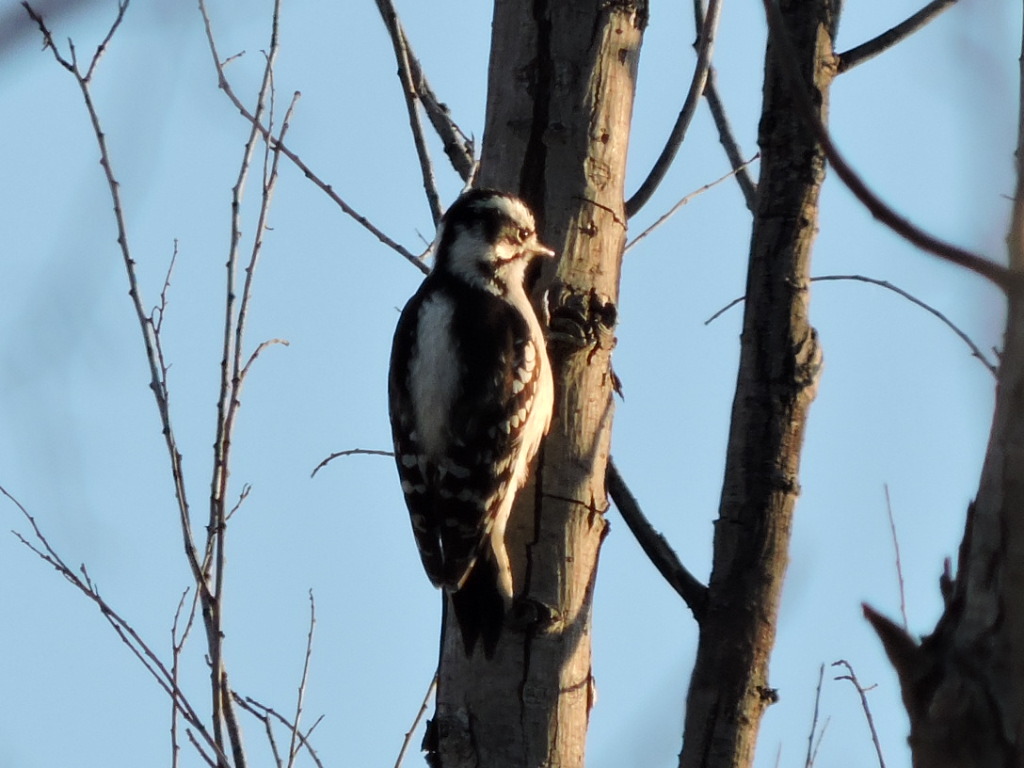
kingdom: Animalia
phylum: Chordata
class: Aves
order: Piciformes
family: Picidae
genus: Dryobates
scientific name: Dryobates pubescens
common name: Downy woodpecker
